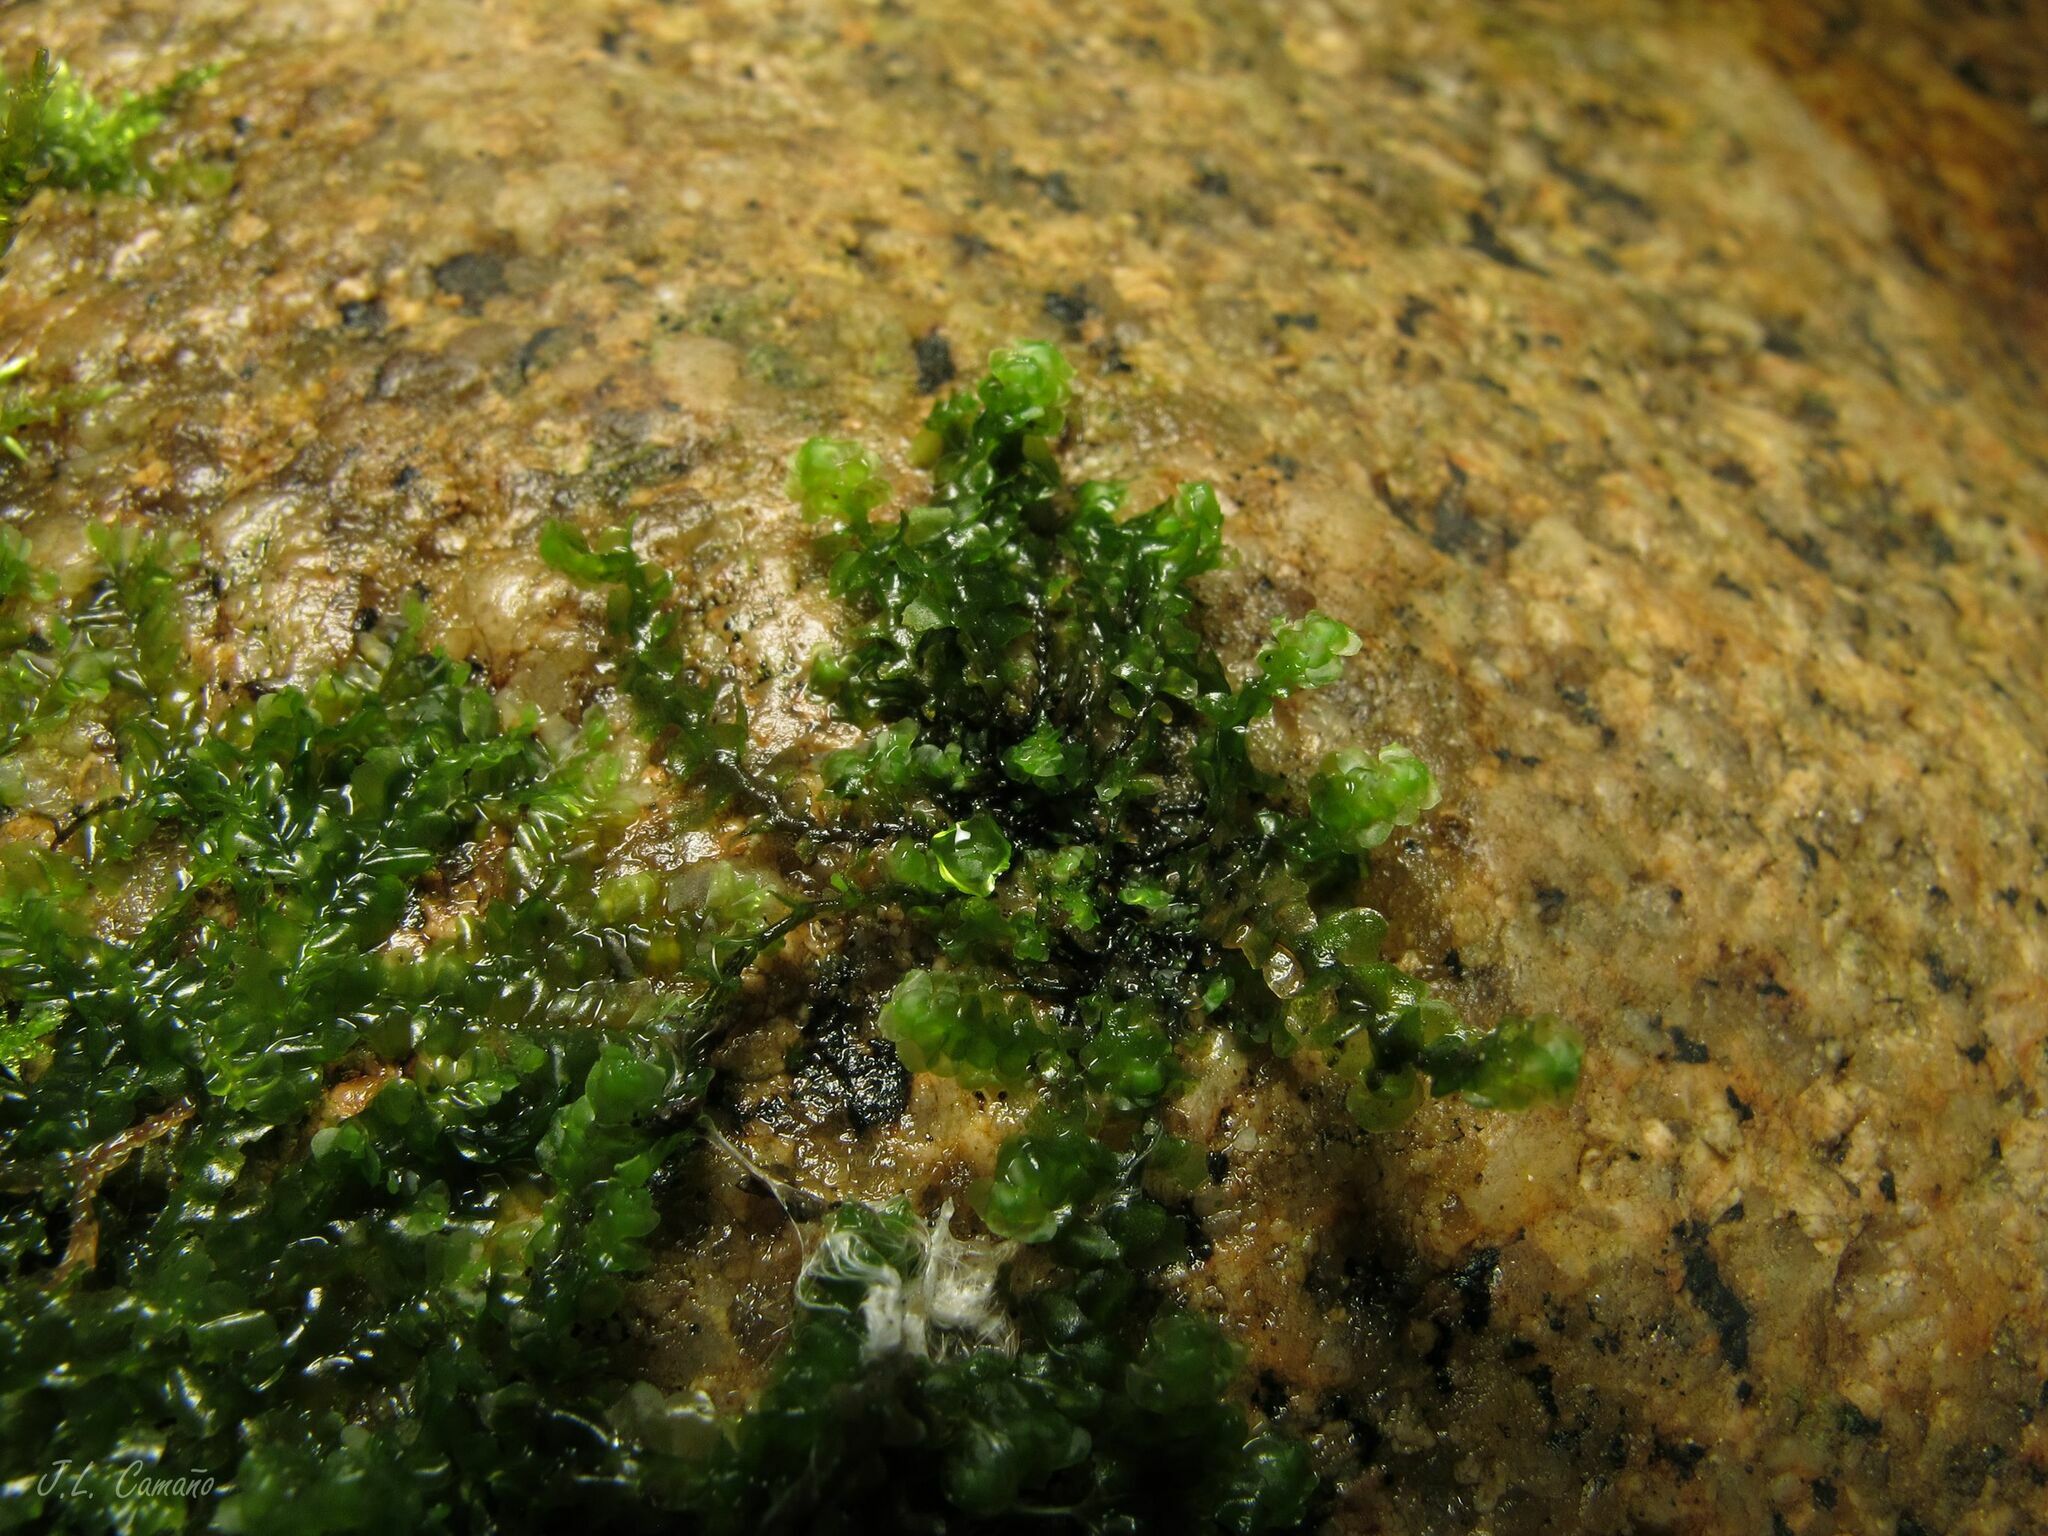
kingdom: Plantae
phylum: Marchantiophyta
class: Jungermanniopsida
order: Jungermanniales
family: Scapaniaceae
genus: Scapania
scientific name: Scapania undulata
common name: Water earwort
